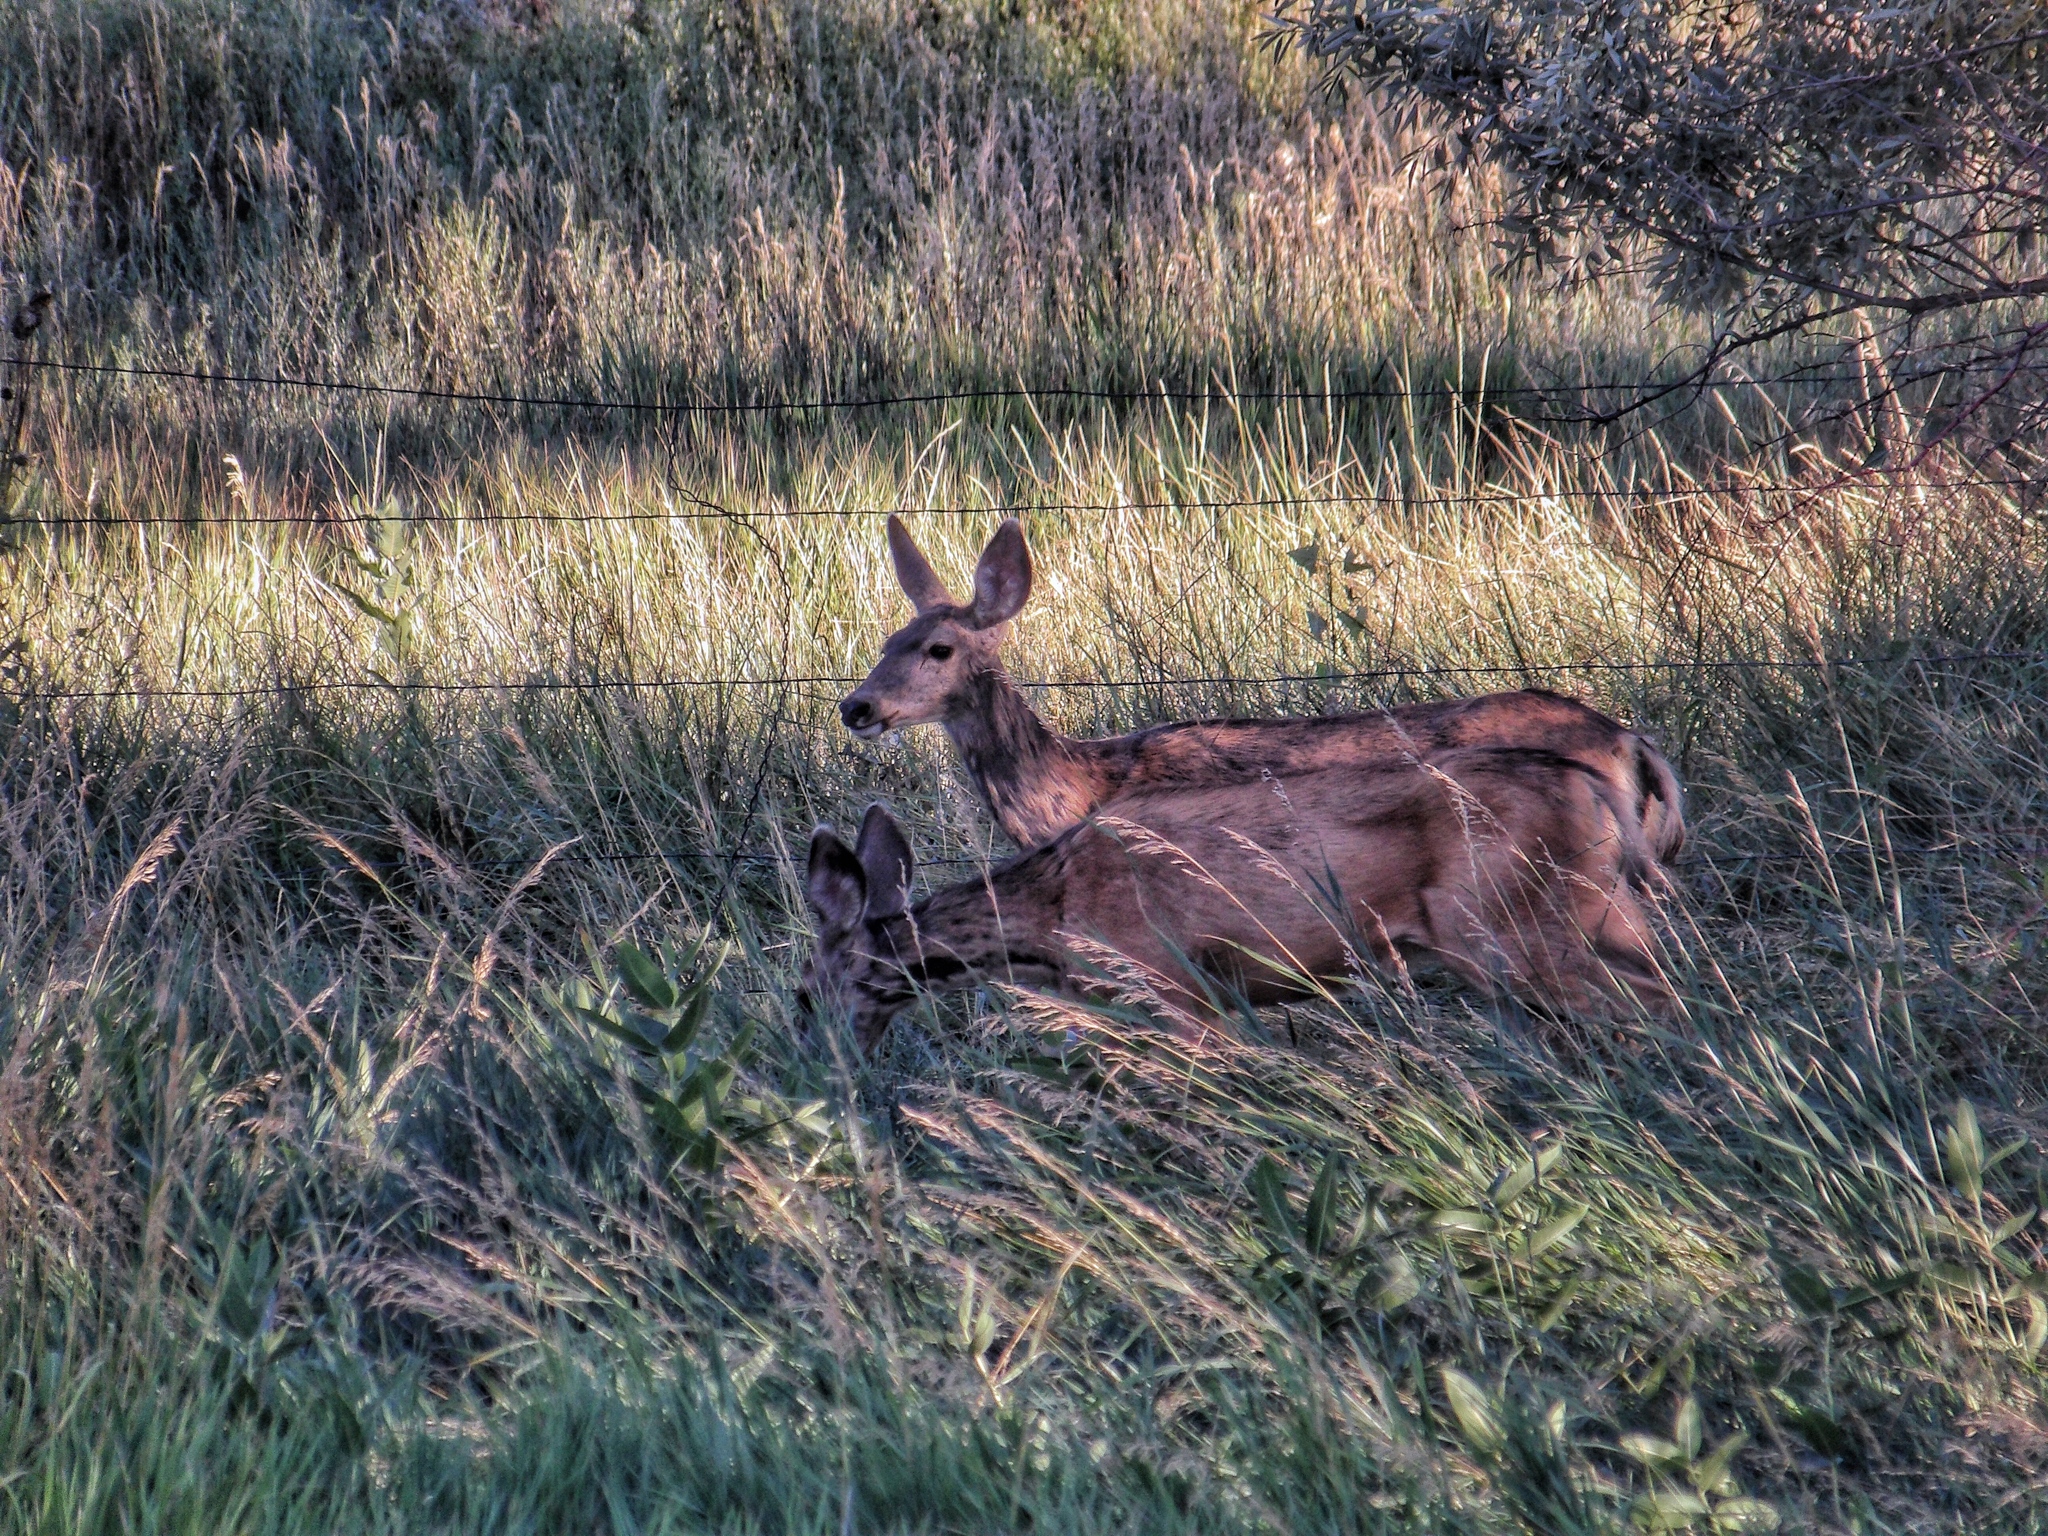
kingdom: Animalia
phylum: Chordata
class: Mammalia
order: Artiodactyla
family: Cervidae
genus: Odocoileus
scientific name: Odocoileus hemionus
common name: Mule deer
